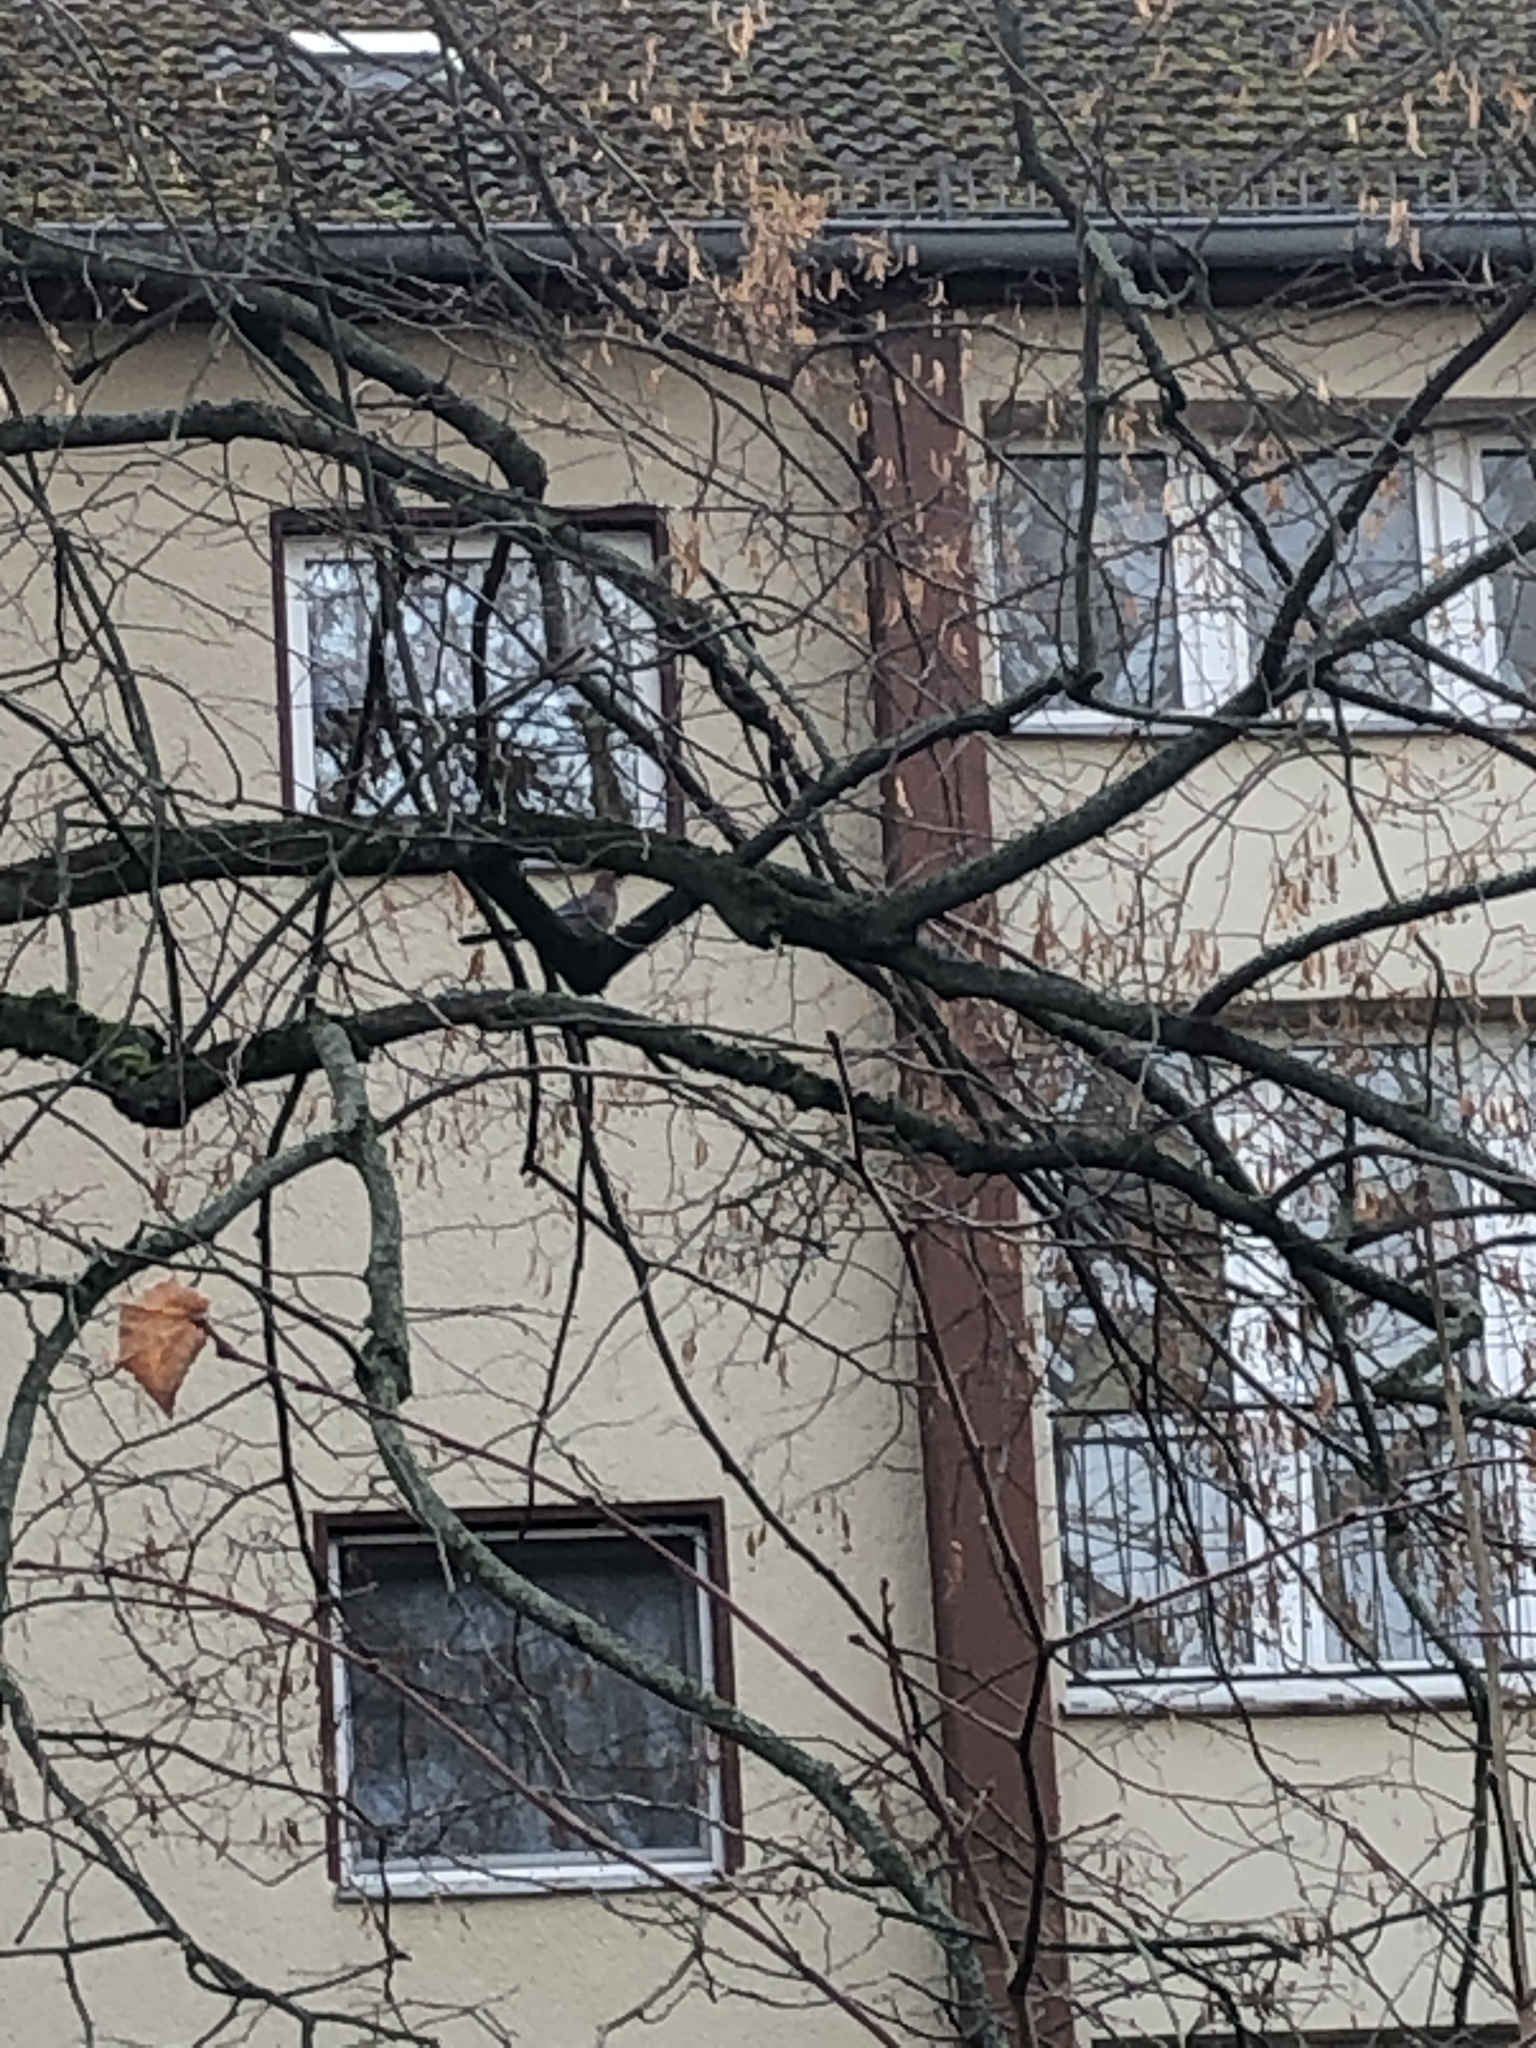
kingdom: Animalia
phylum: Chordata
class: Aves
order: Passeriformes
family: Corvidae
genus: Garrulus
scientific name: Garrulus glandarius
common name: Eurasian jay
